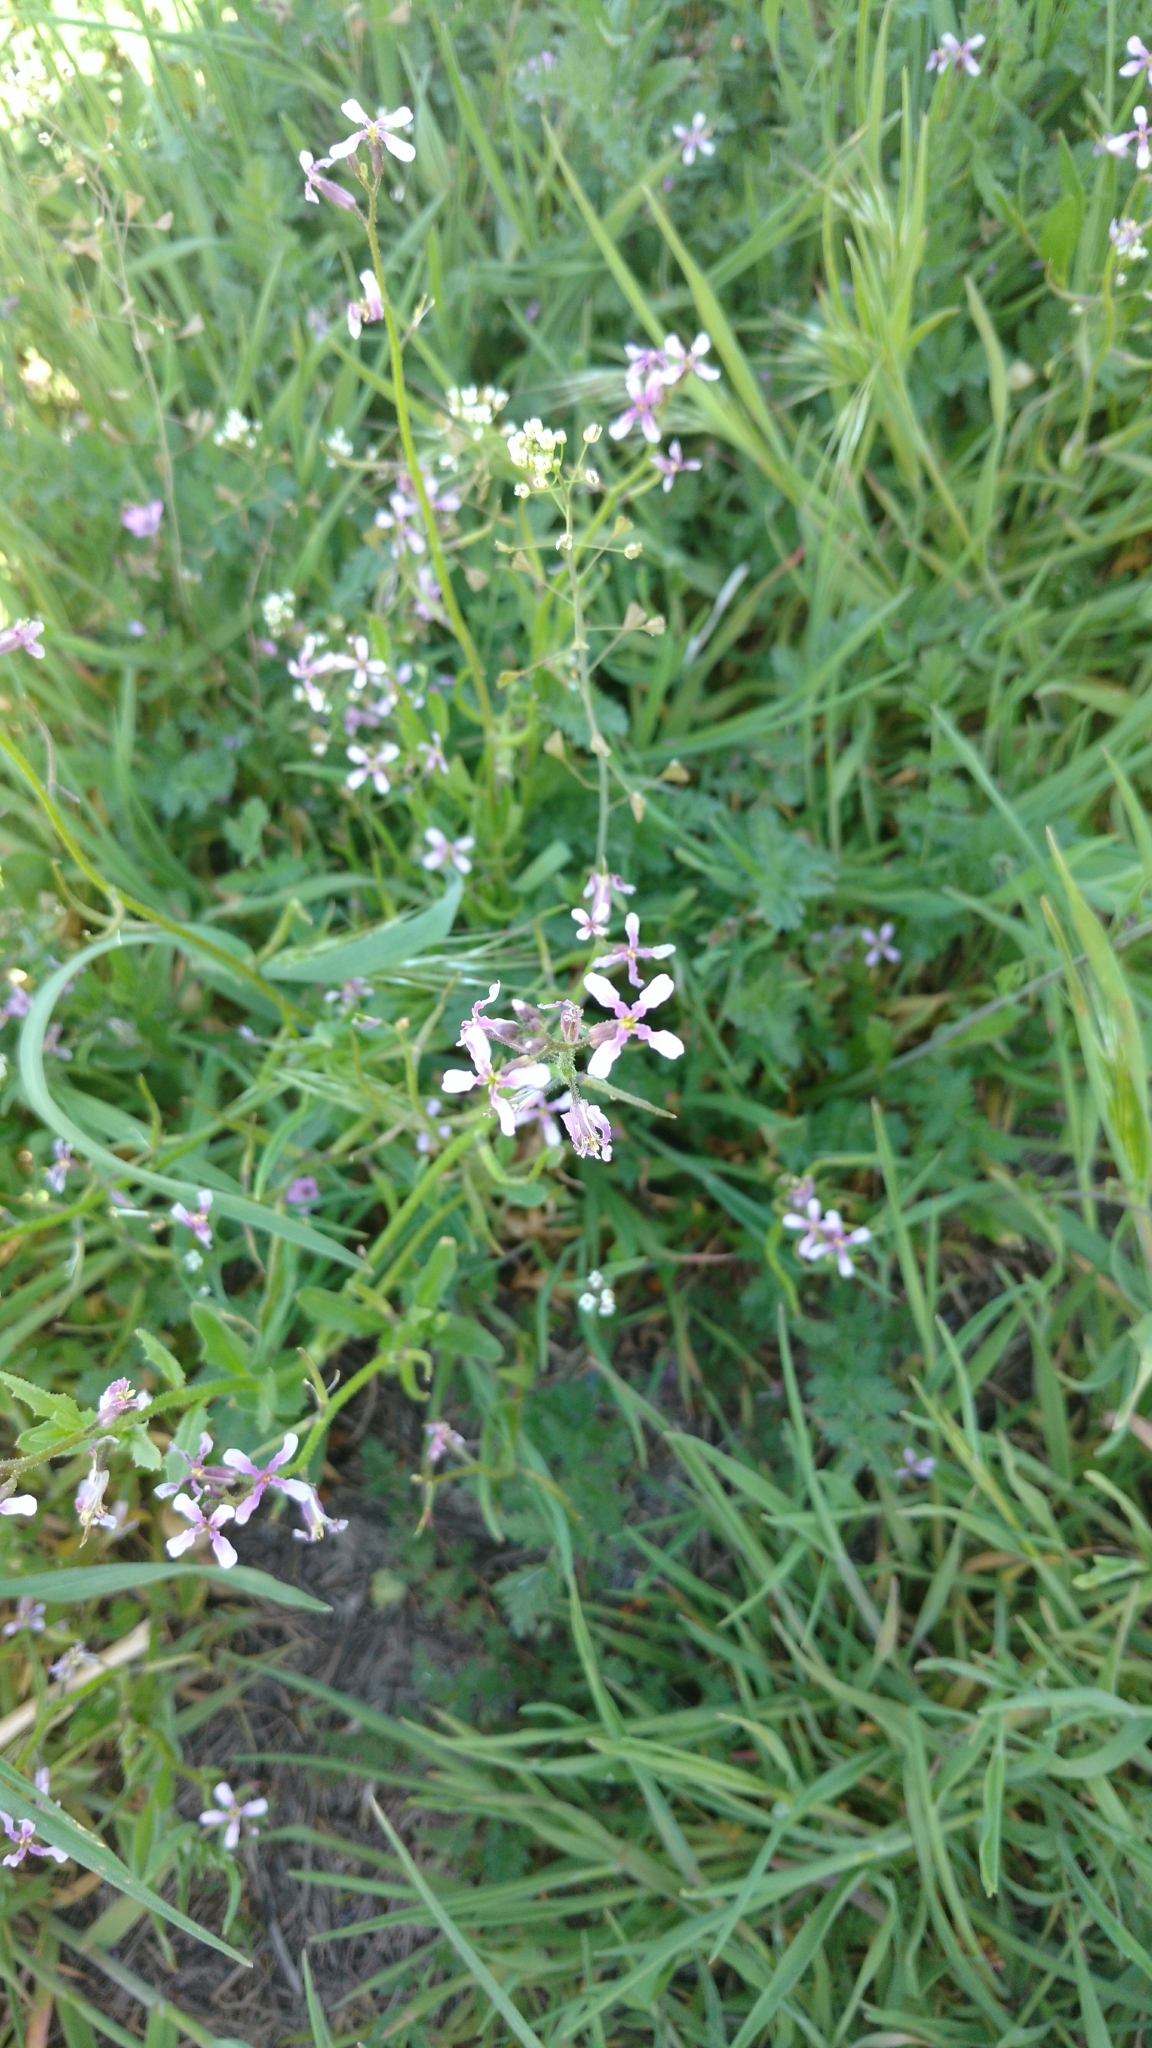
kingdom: Plantae
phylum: Tracheophyta
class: Magnoliopsida
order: Brassicales
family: Brassicaceae
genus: Chorispora
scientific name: Chorispora tenella
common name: Crossflower
